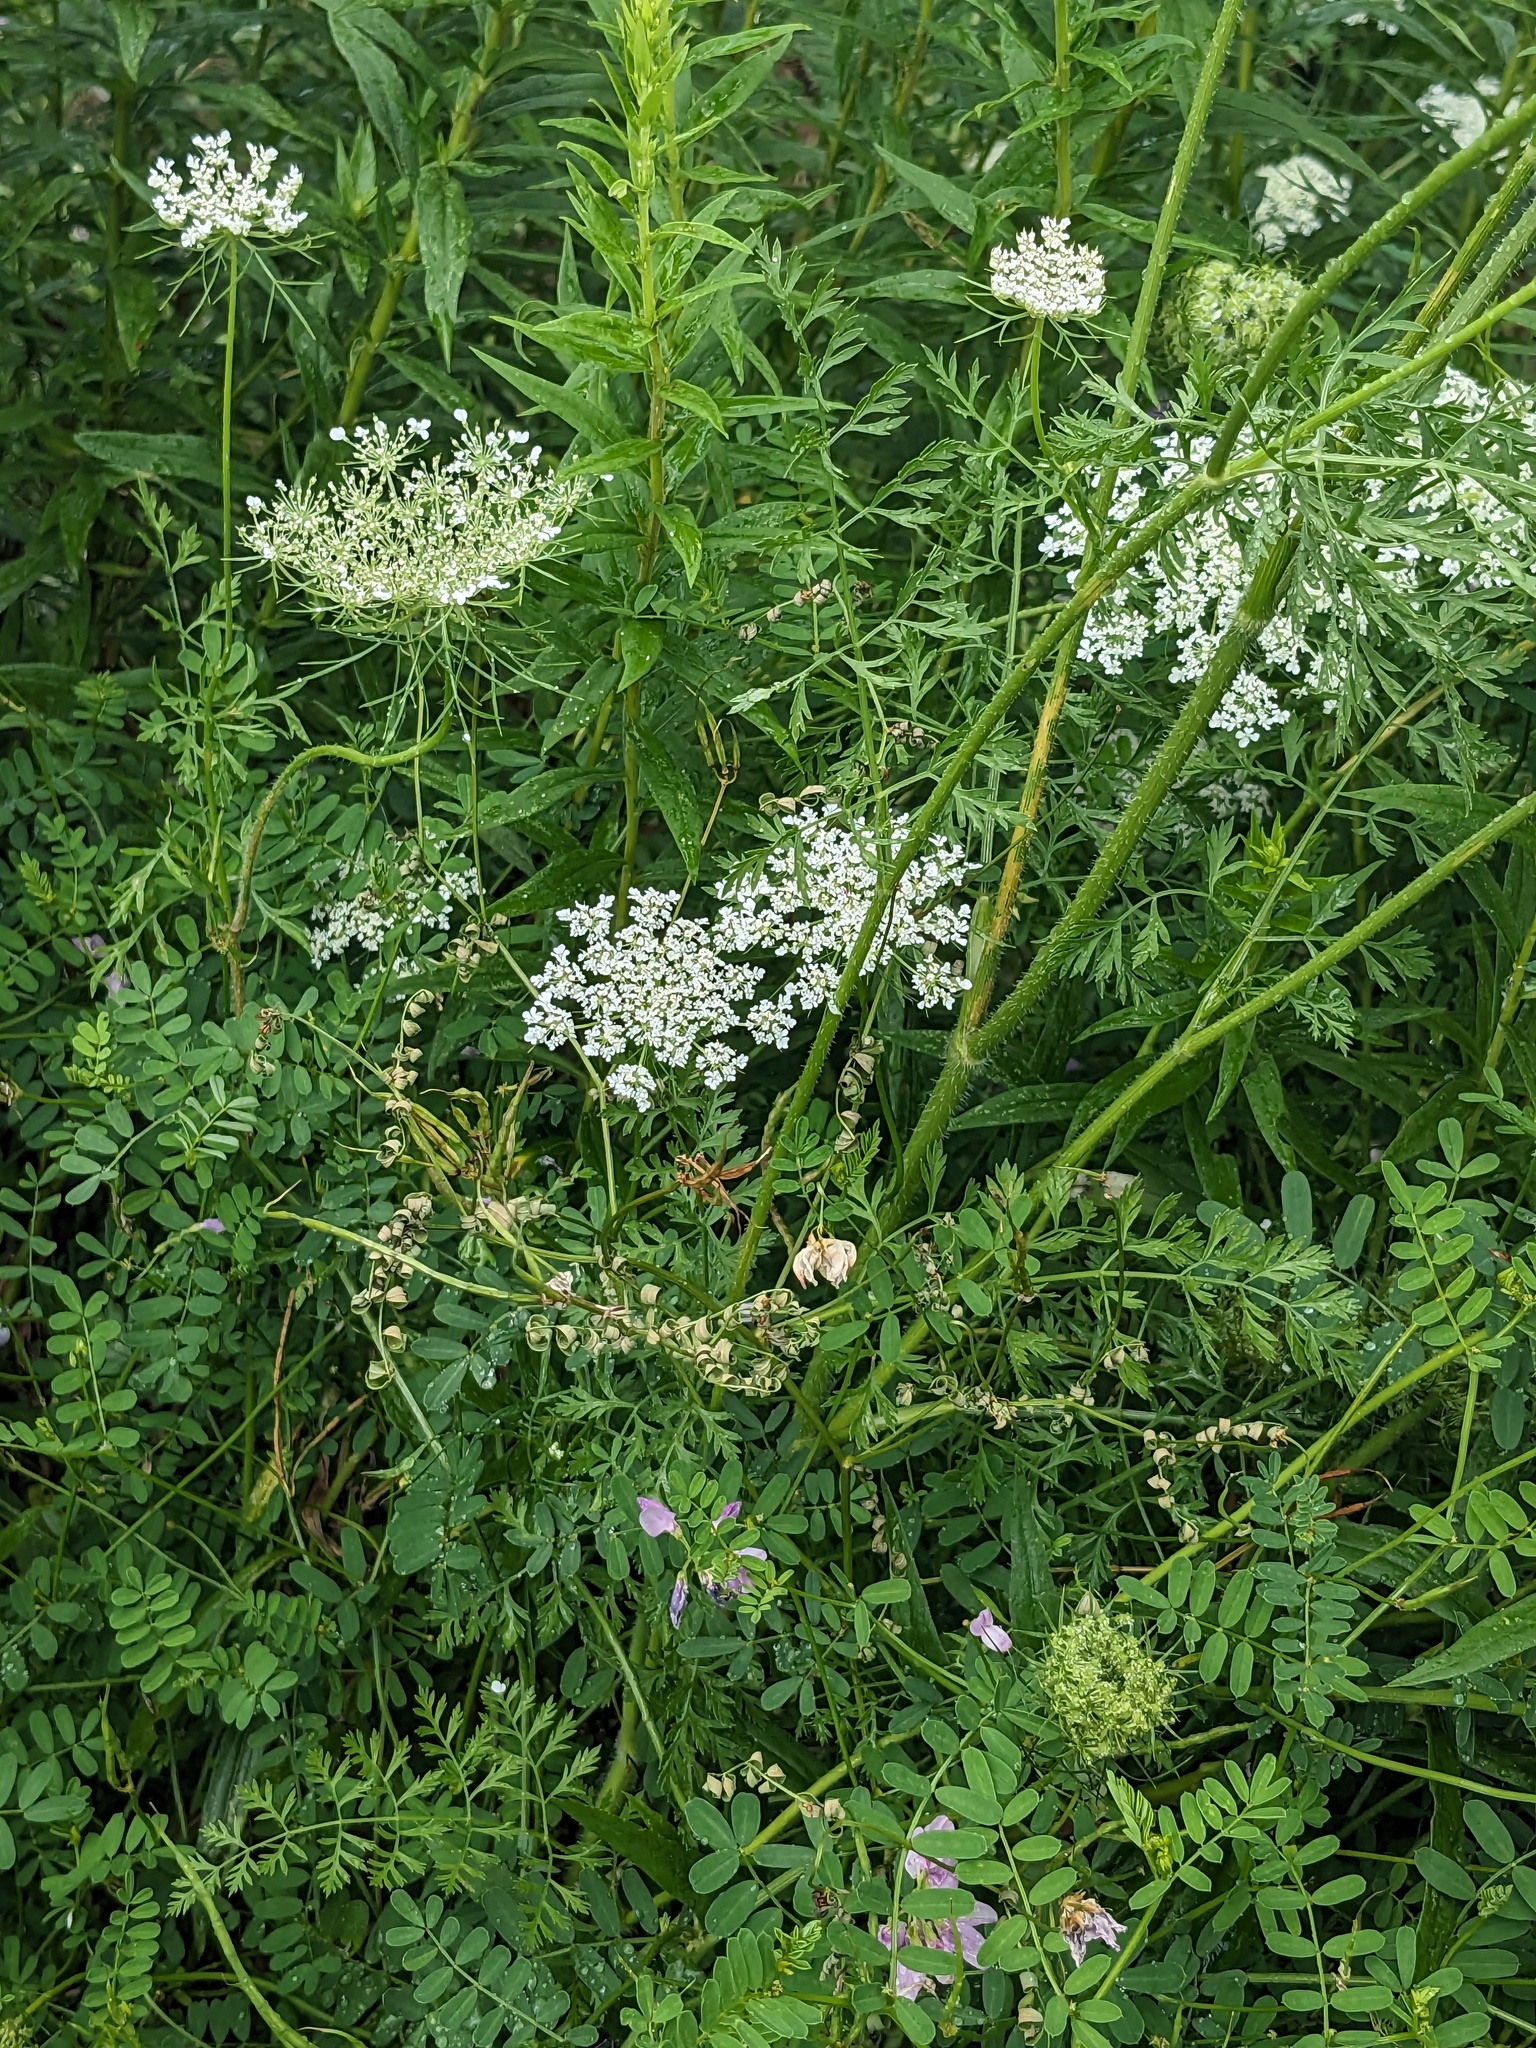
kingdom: Plantae
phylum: Tracheophyta
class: Magnoliopsida
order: Apiales
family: Apiaceae
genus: Daucus
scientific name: Daucus carota
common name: Wild carrot
